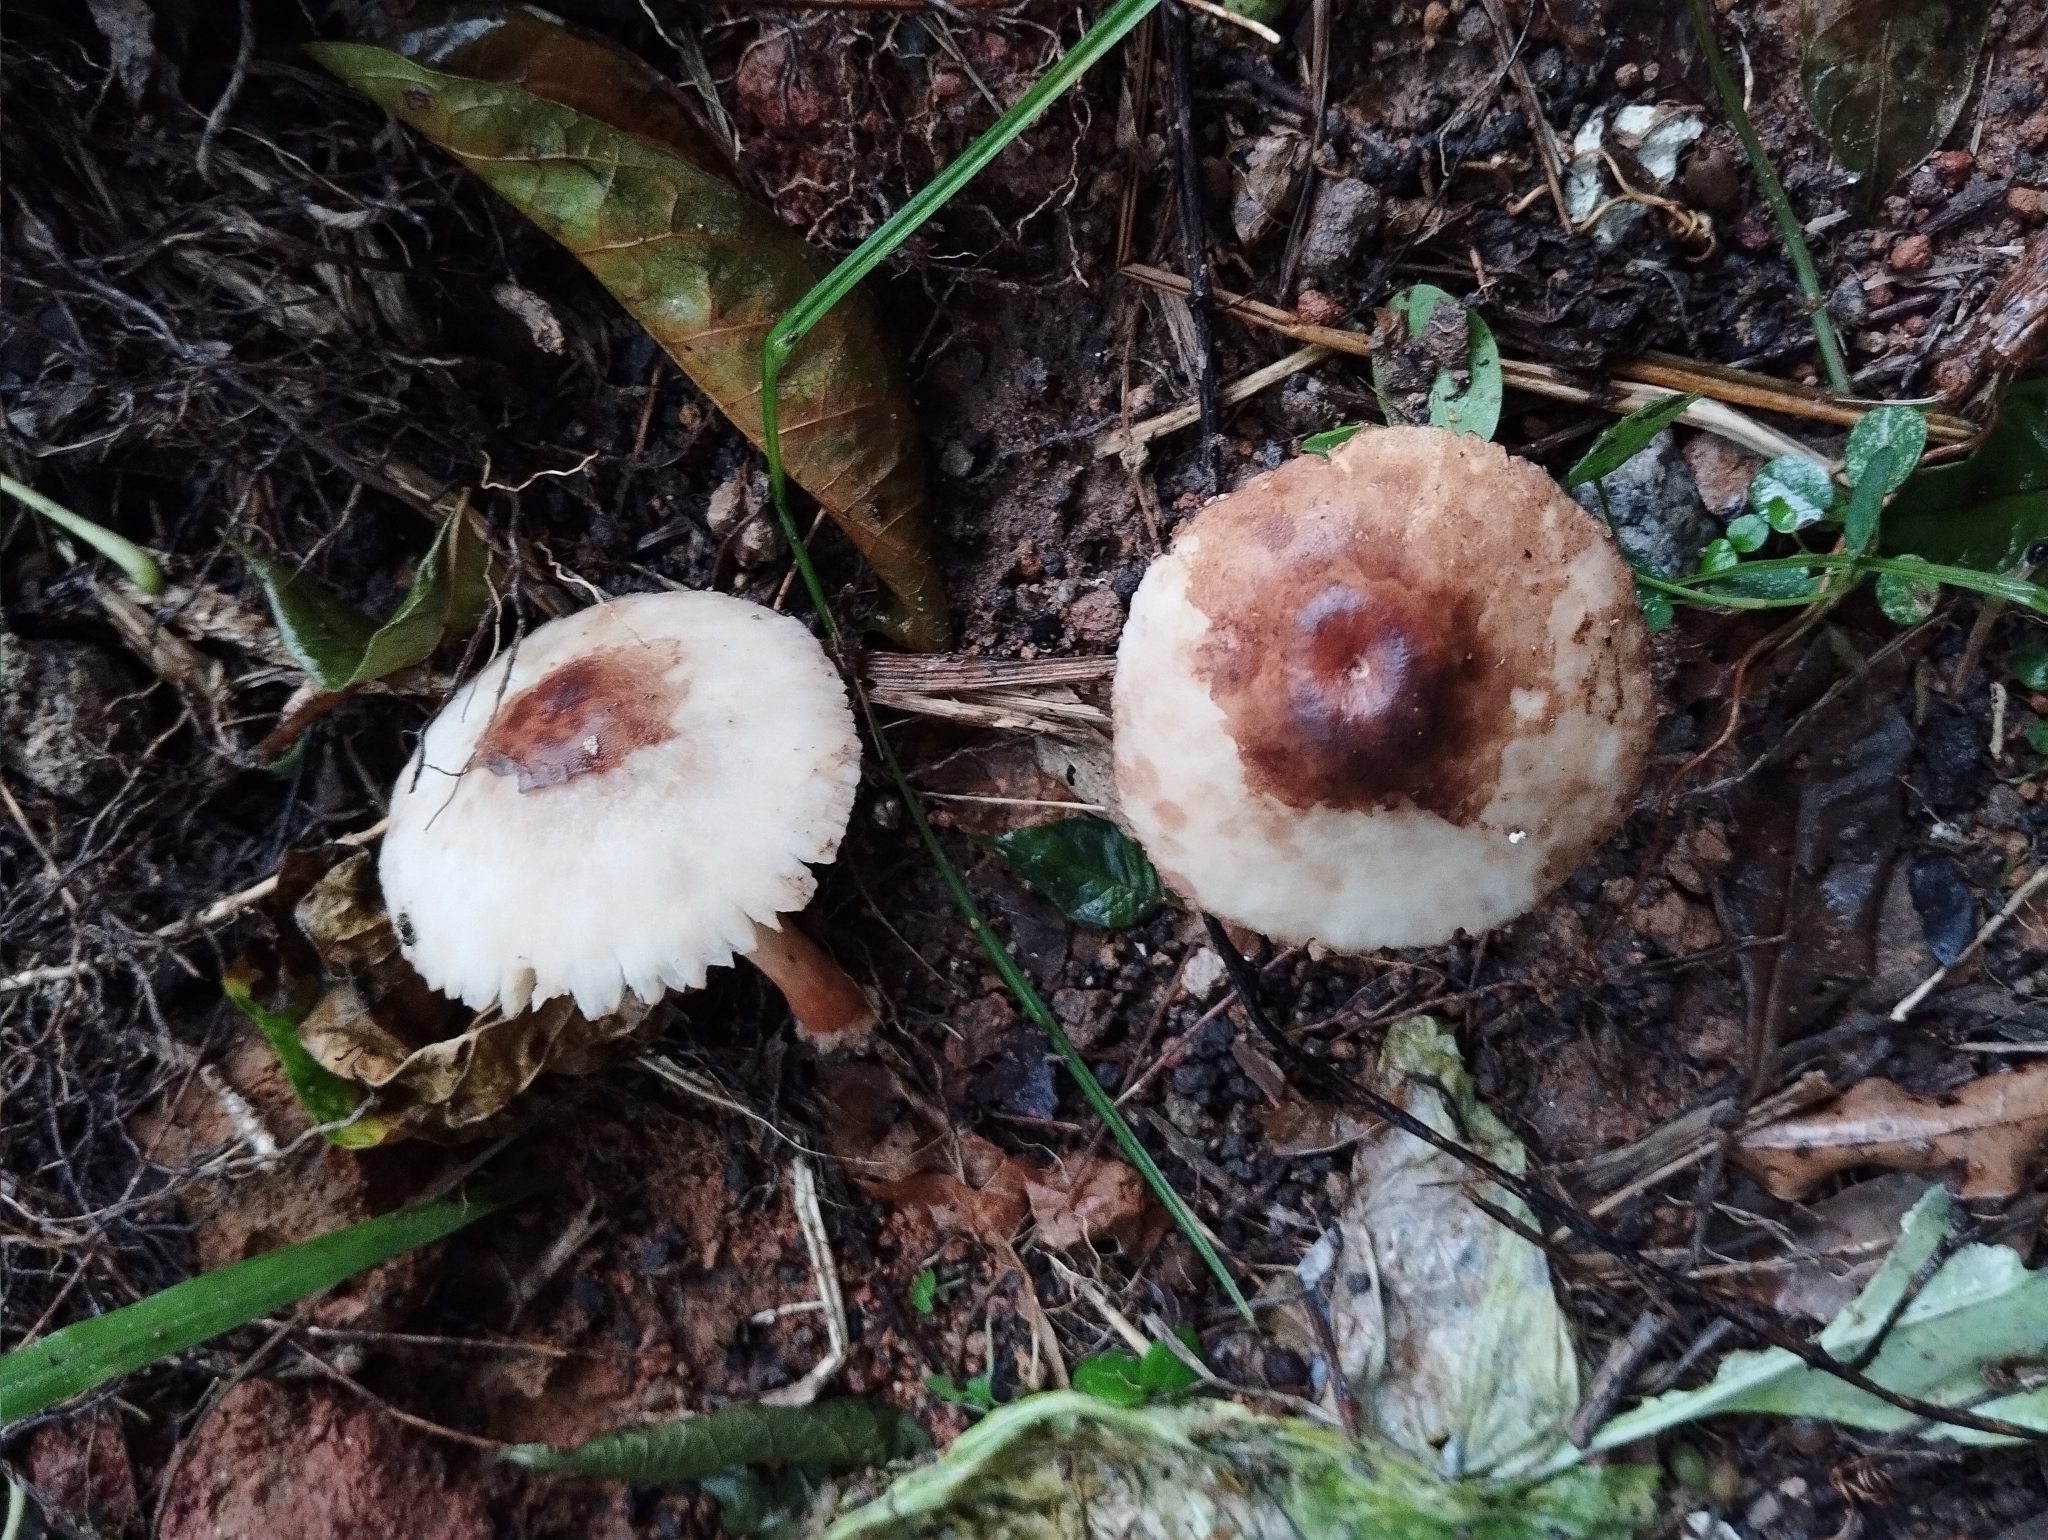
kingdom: Fungi
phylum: Basidiomycota
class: Agaricomycetes
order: Agaricales
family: Agaricaceae
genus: Chlorophyllum
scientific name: Chlorophyllum molybdites
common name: False parasol
